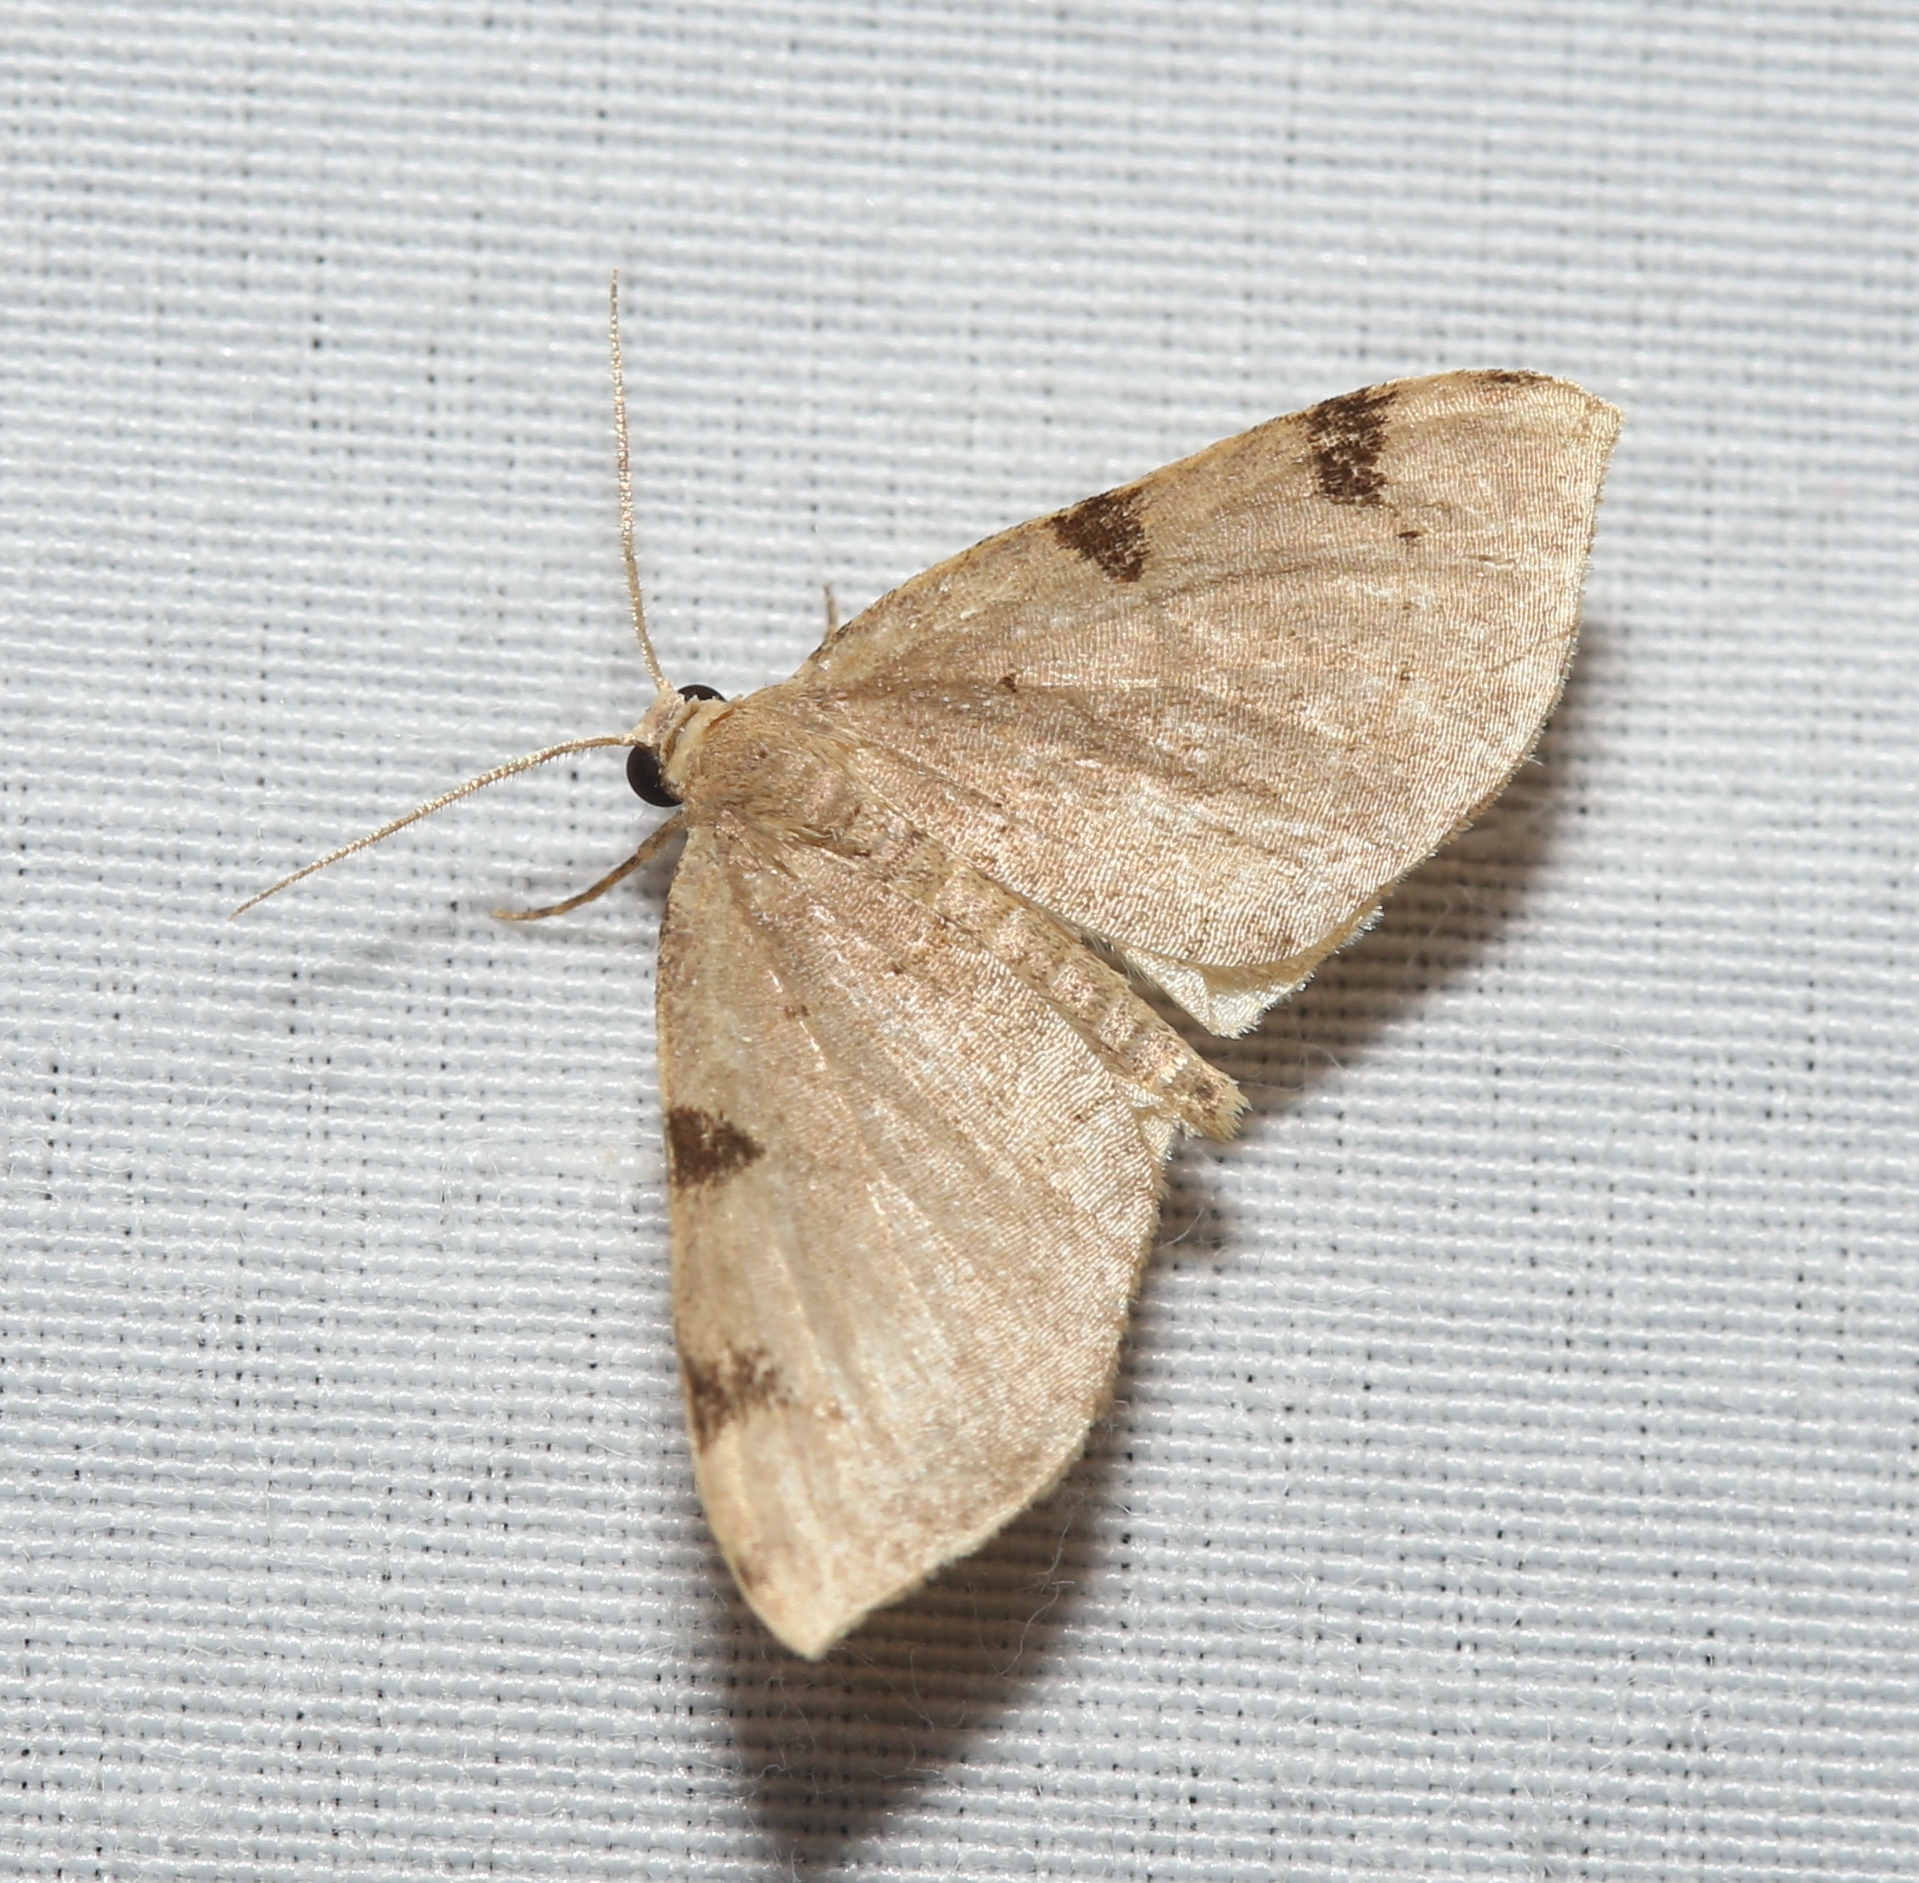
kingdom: Animalia
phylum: Arthropoda
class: Insecta
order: Lepidoptera
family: Geometridae
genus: Heterophleps
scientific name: Heterophleps triguttaria
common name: Three-spotted fillip
